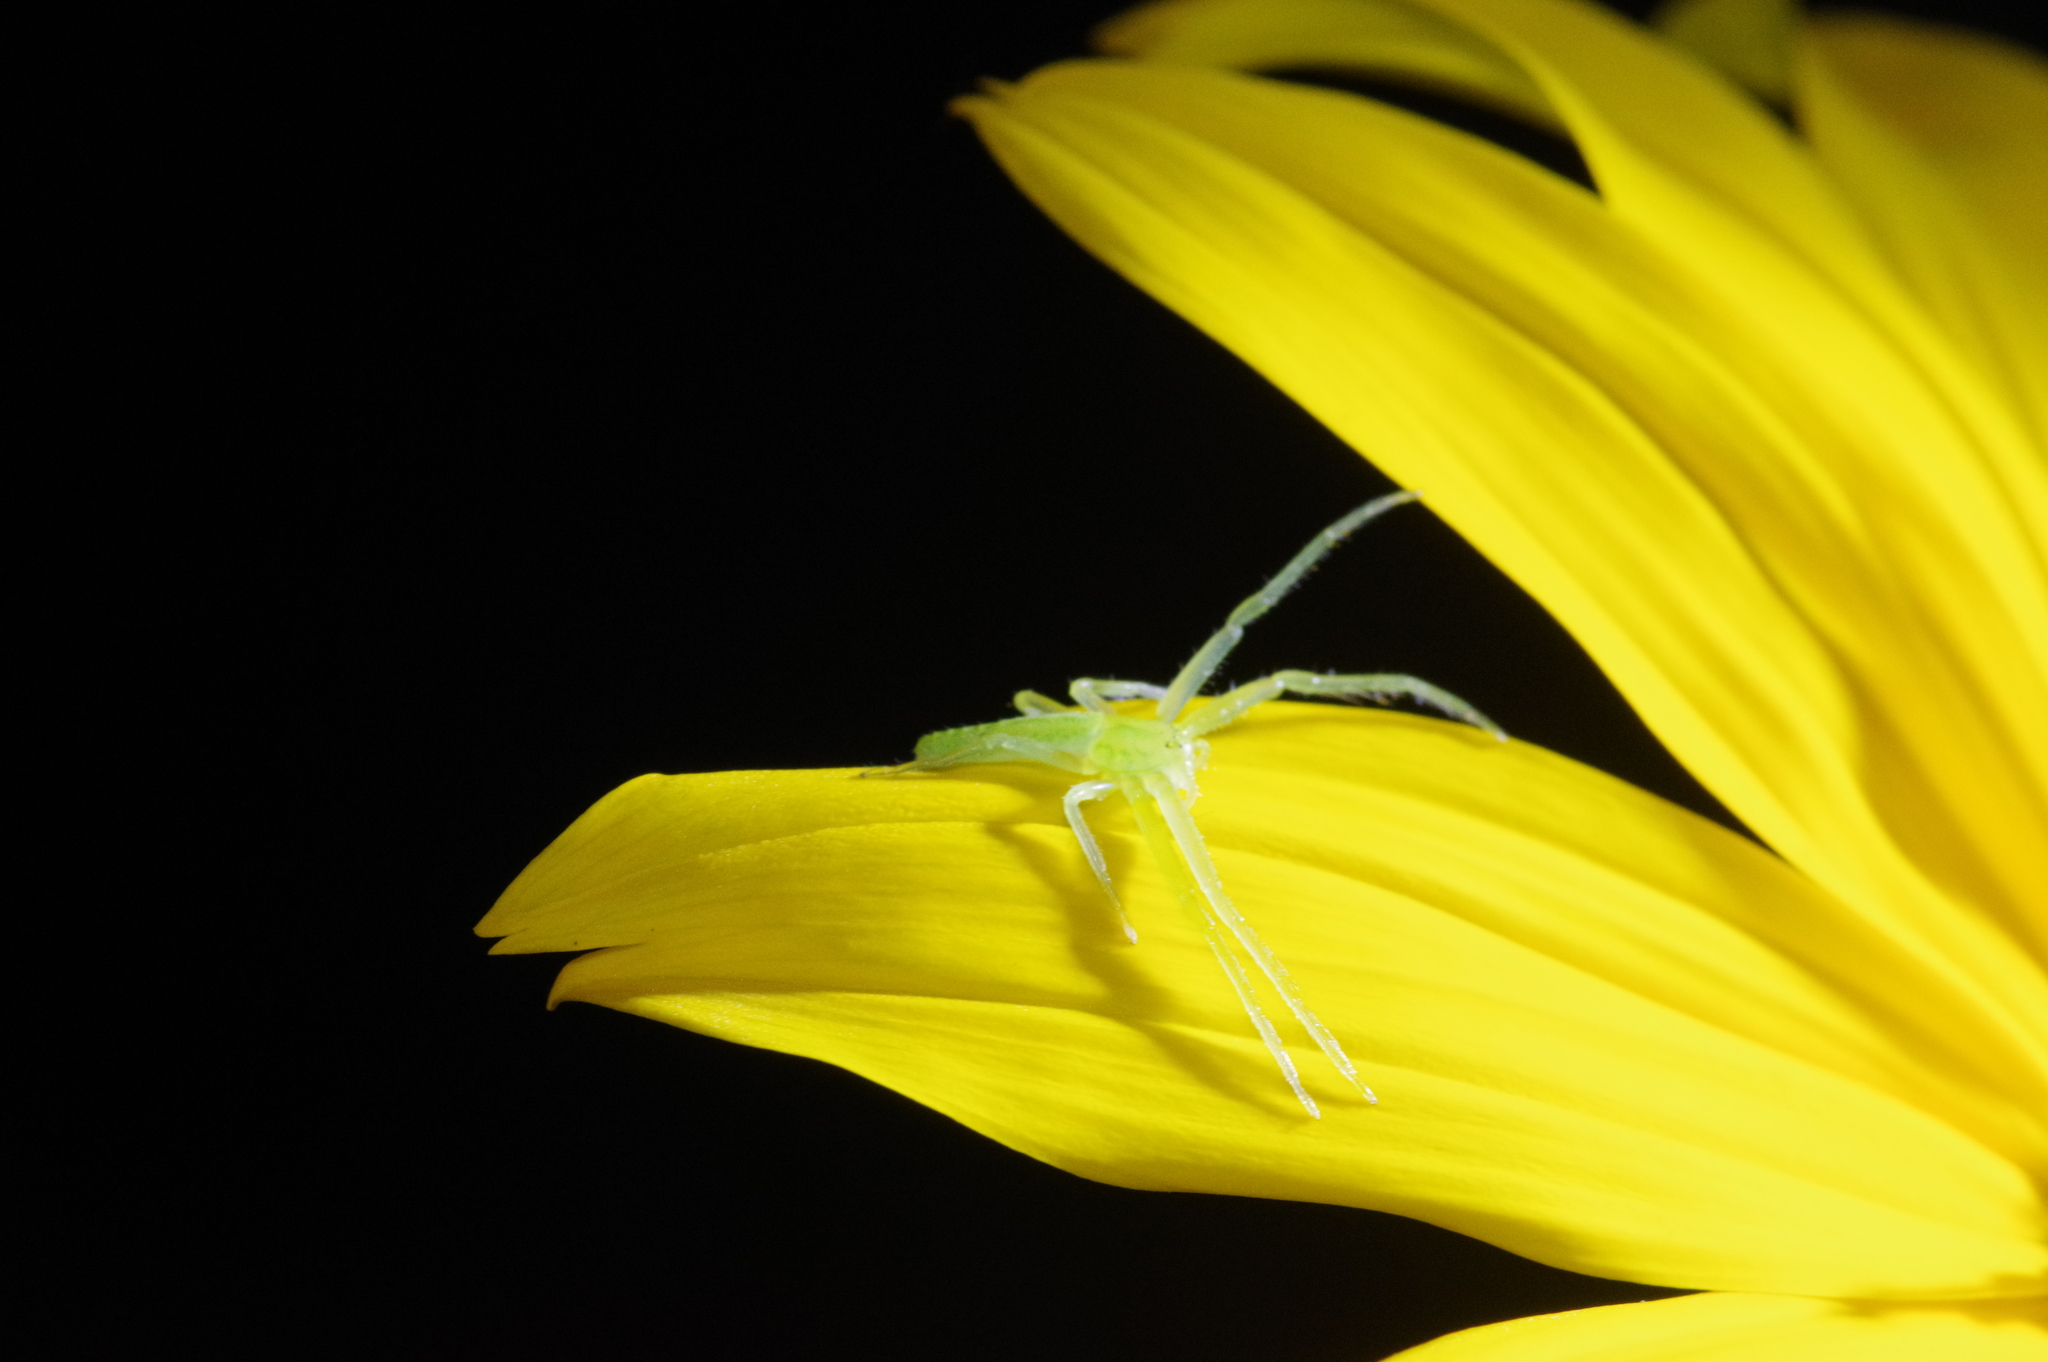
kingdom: Animalia
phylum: Arthropoda
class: Arachnida
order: Araneae
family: Thomisidae
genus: Oxytate
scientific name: Oxytate hoshizuna
